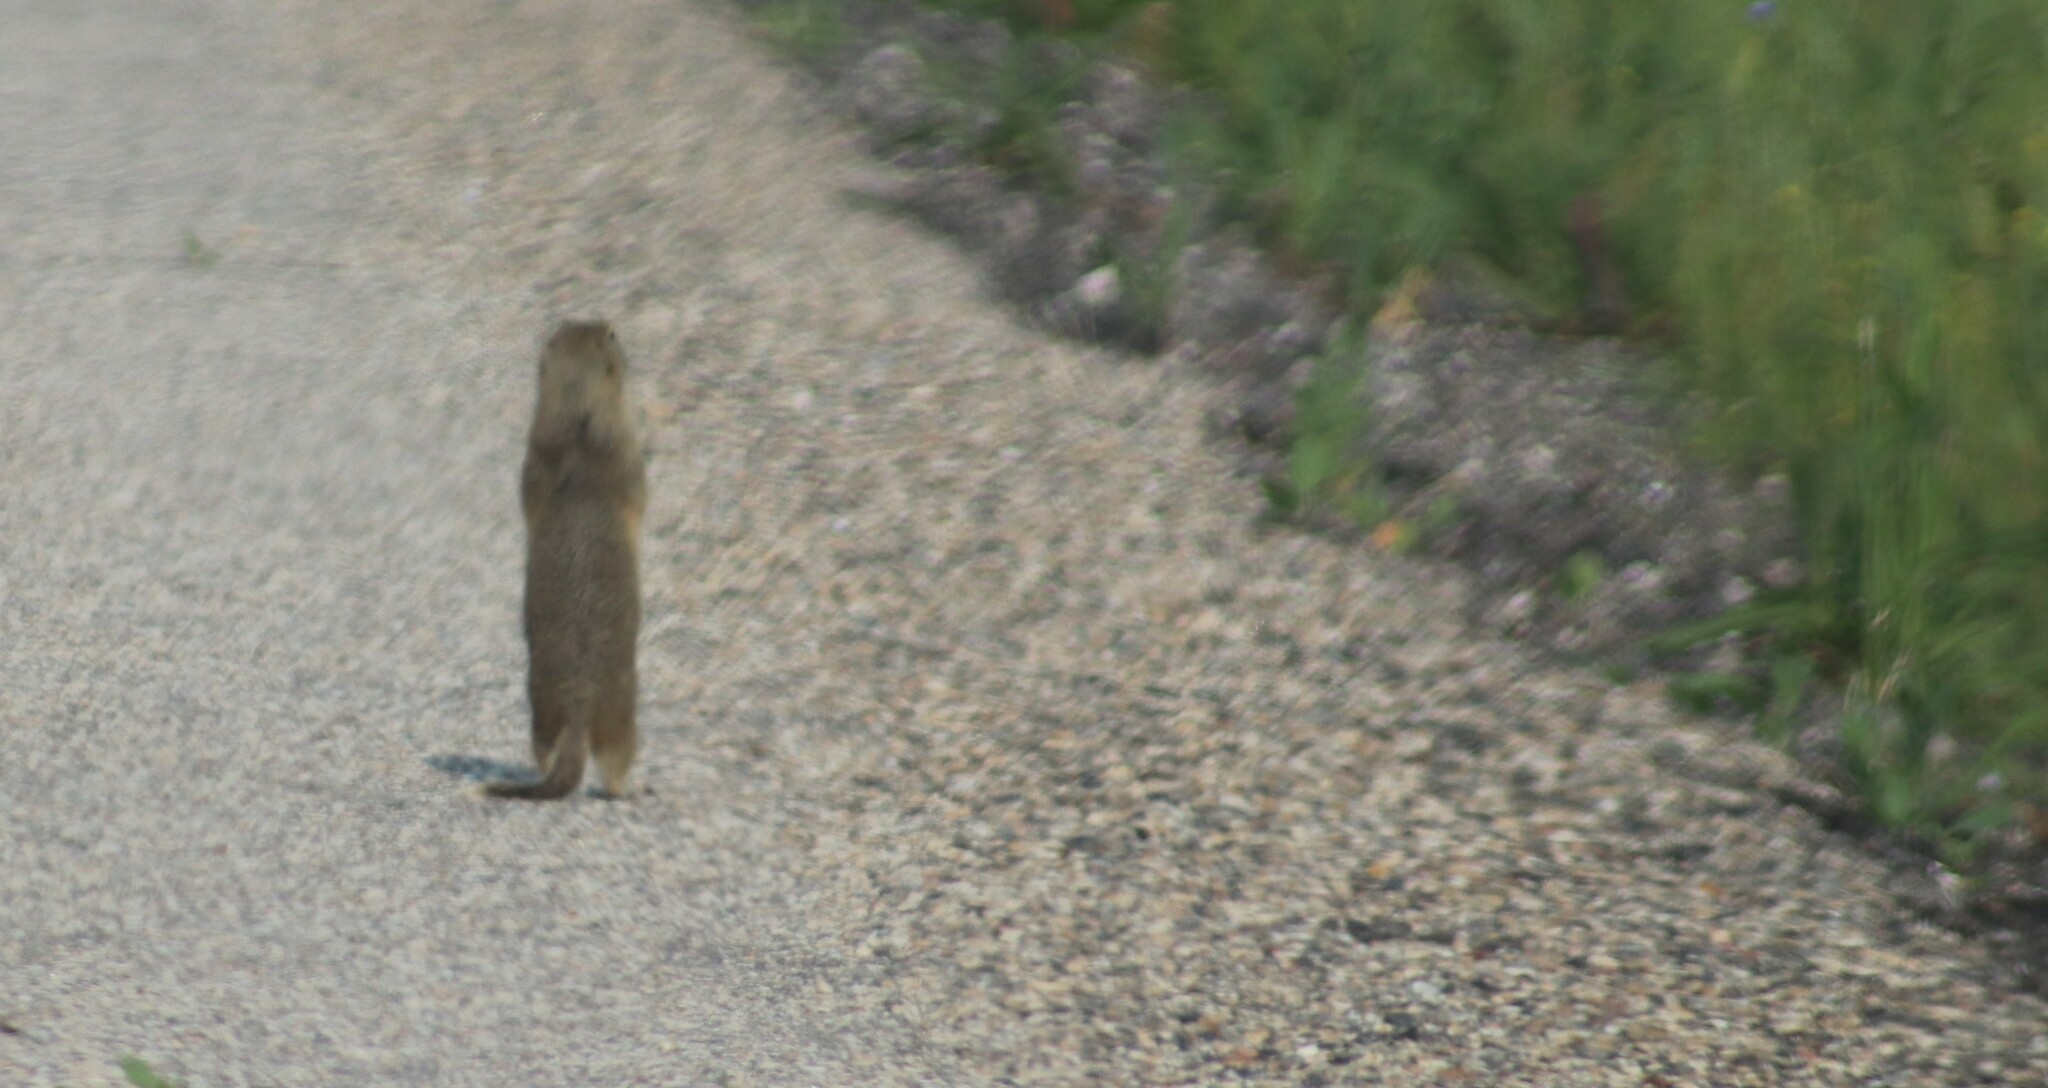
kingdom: Animalia
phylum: Chordata
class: Mammalia
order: Rodentia
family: Sciuridae
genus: Urocitellus
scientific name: Urocitellus richardsonii
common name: Richardson's ground squirrel
